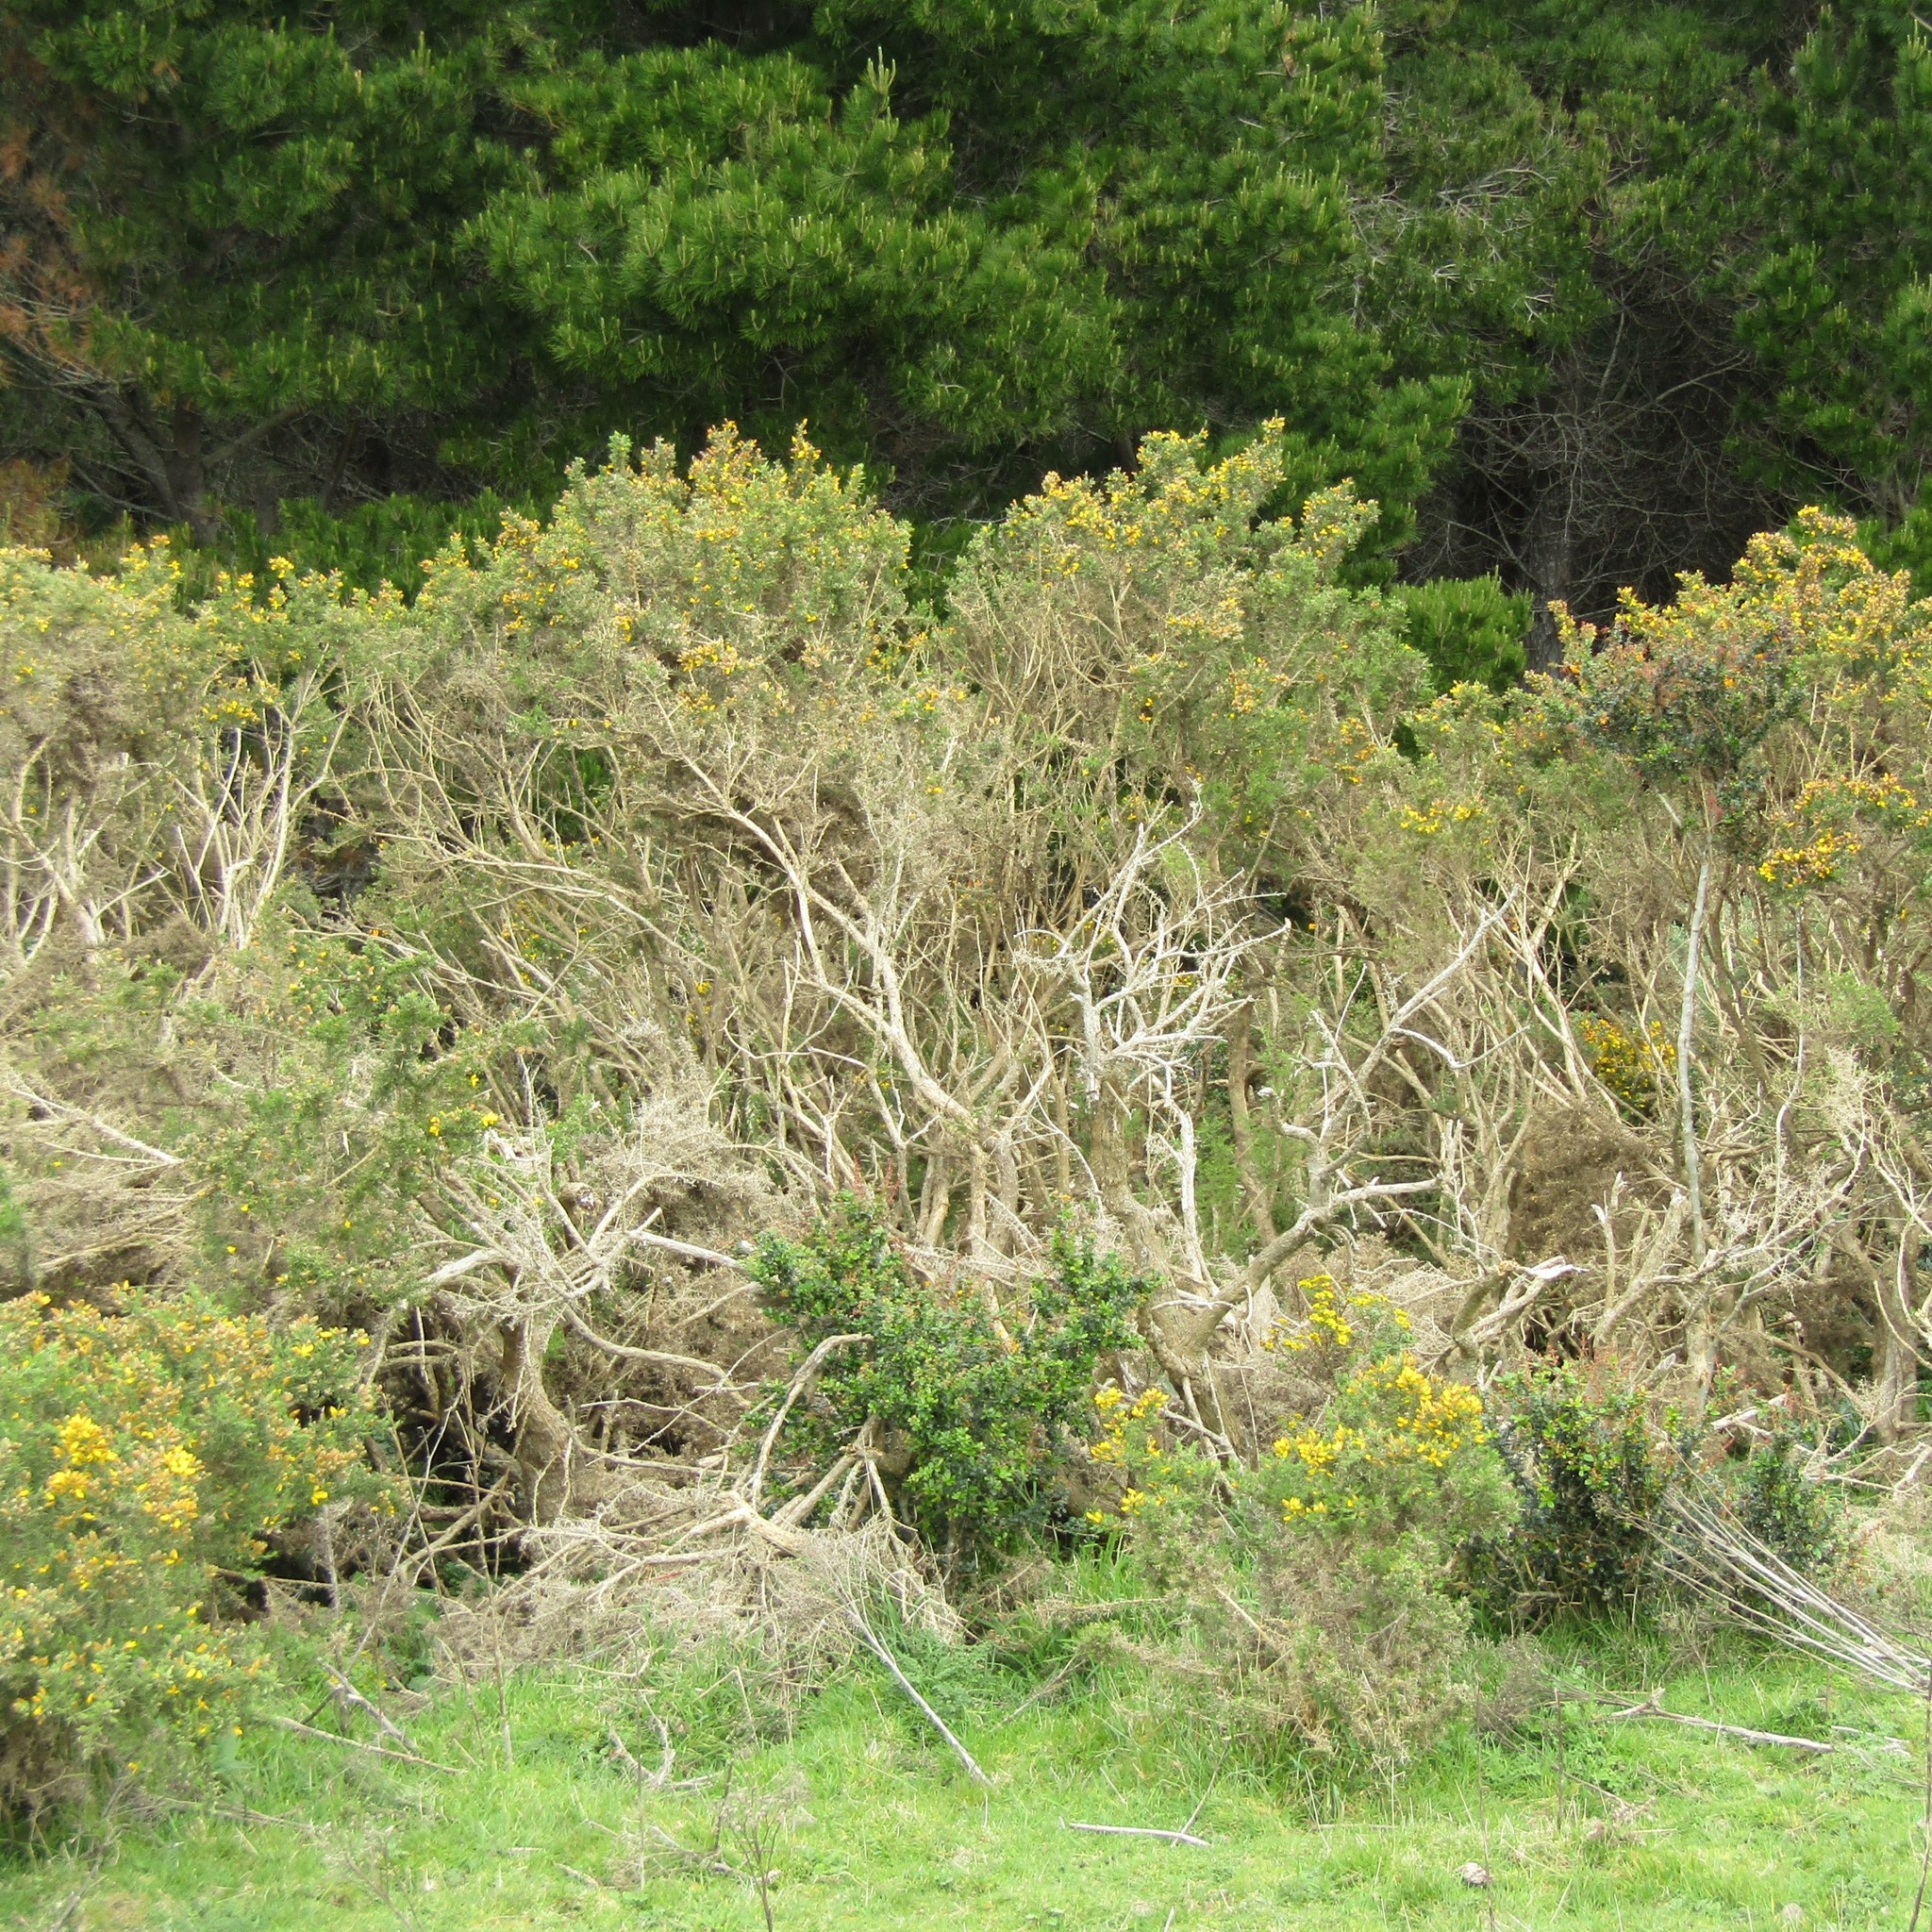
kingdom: Plantae
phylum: Tracheophyta
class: Magnoliopsida
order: Fabales
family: Fabaceae
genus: Ulex
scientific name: Ulex europaeus
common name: Common gorse
